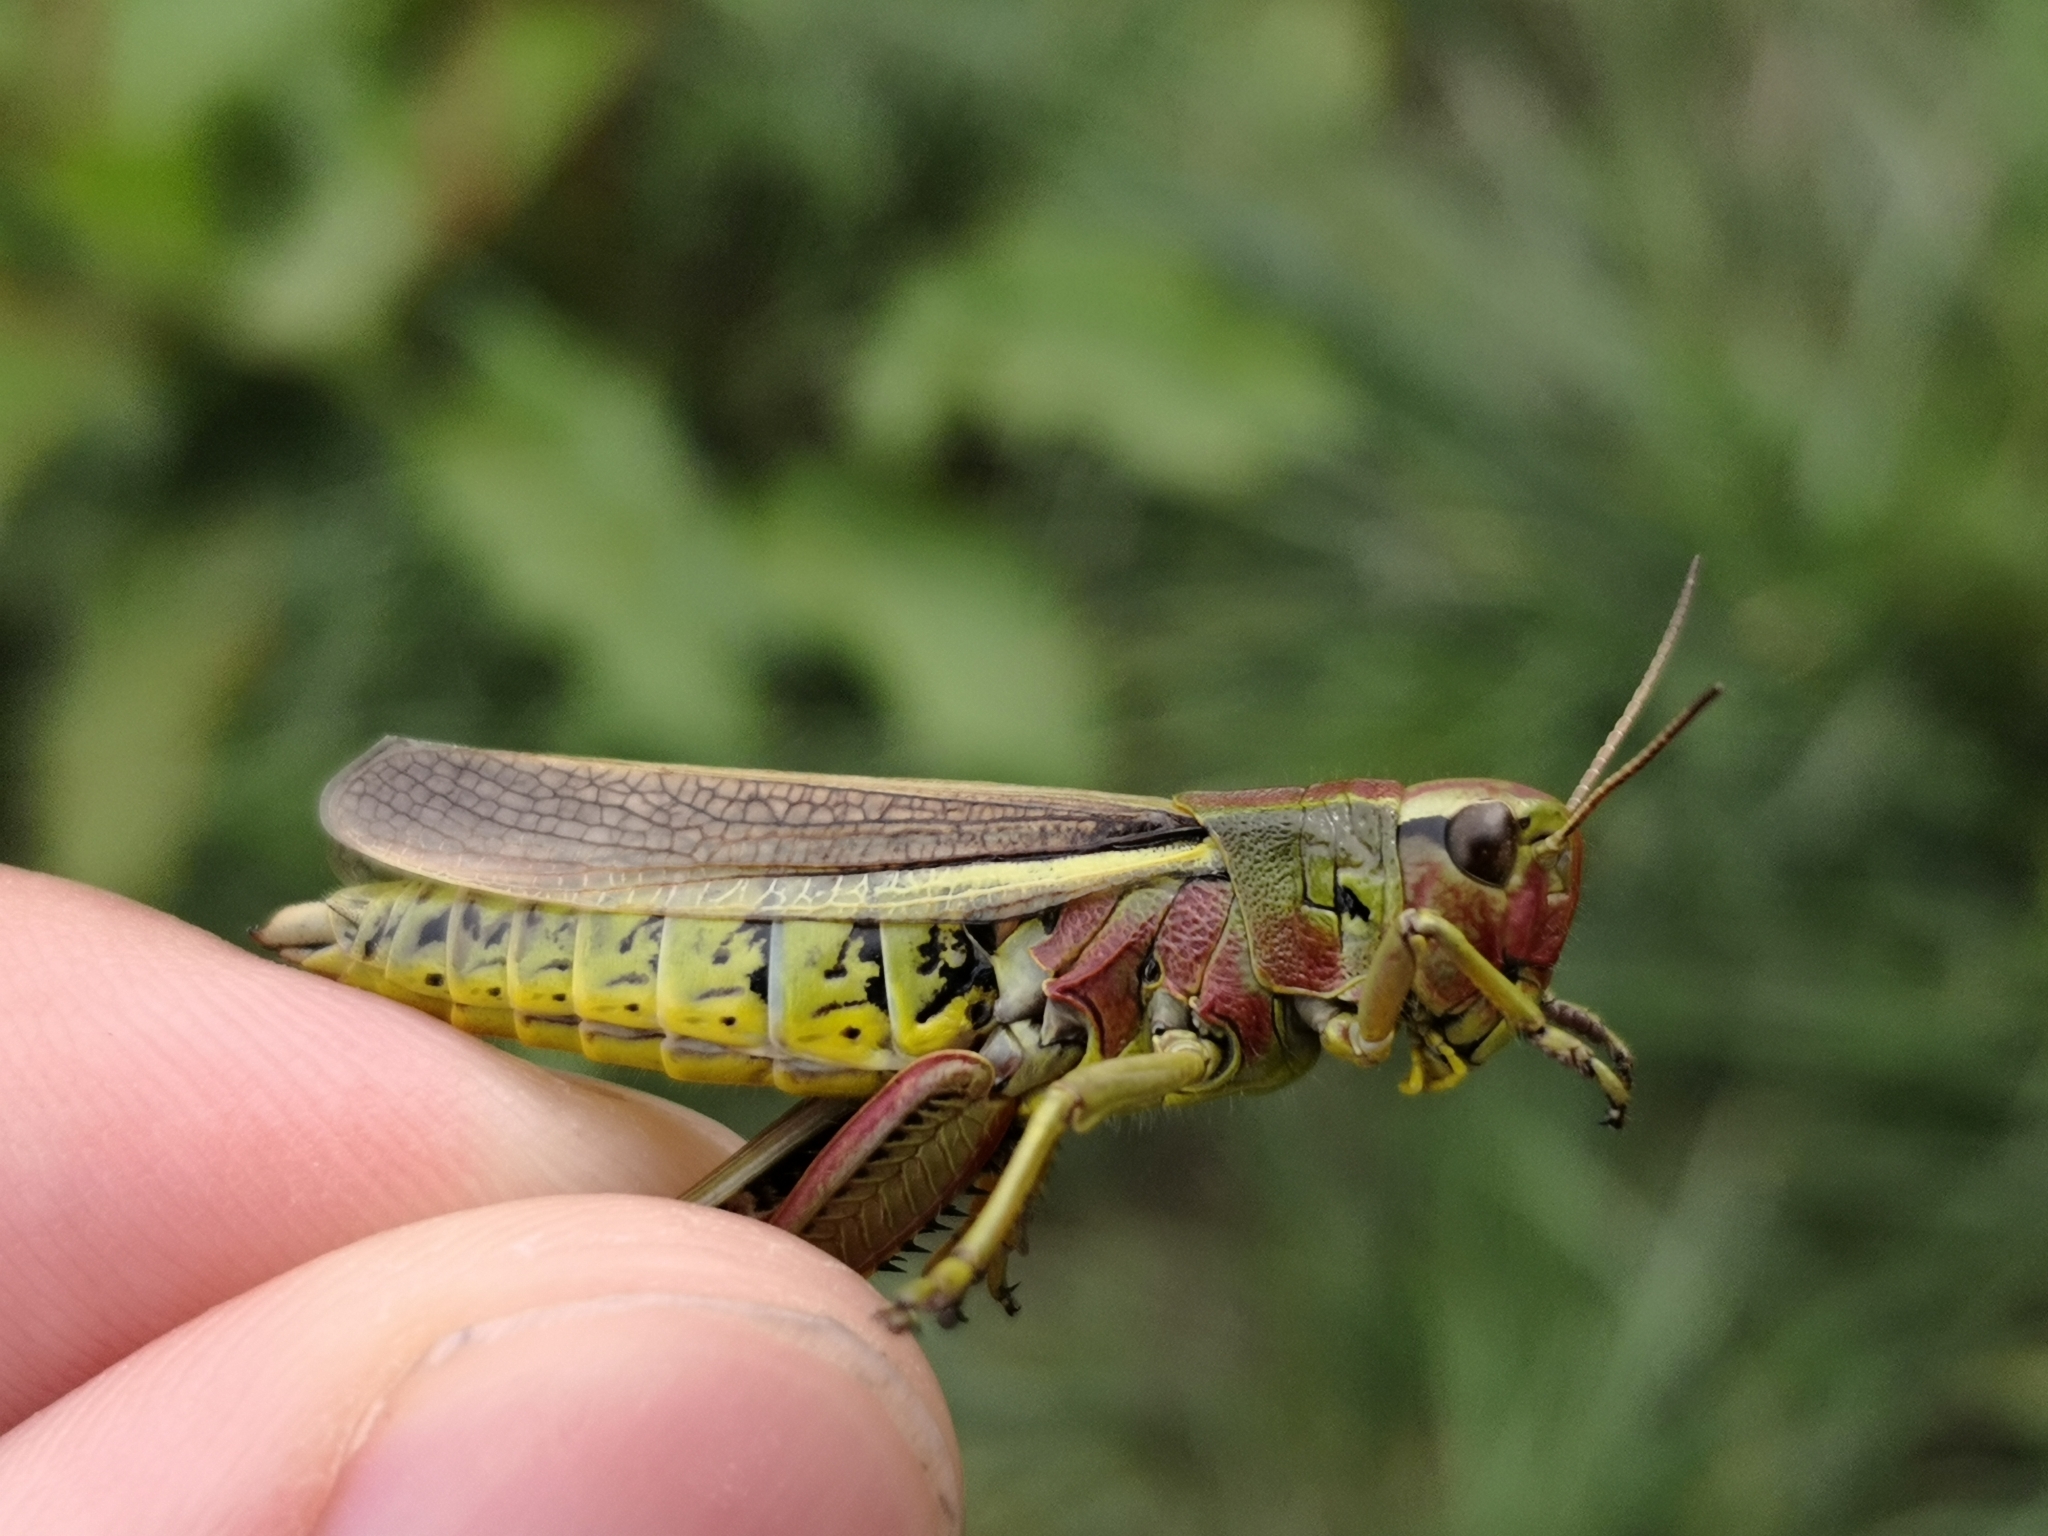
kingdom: Animalia
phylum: Arthropoda
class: Insecta
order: Orthoptera
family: Acrididae
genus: Stethophyma
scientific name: Stethophyma grossum
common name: Large marsh grasshopper
